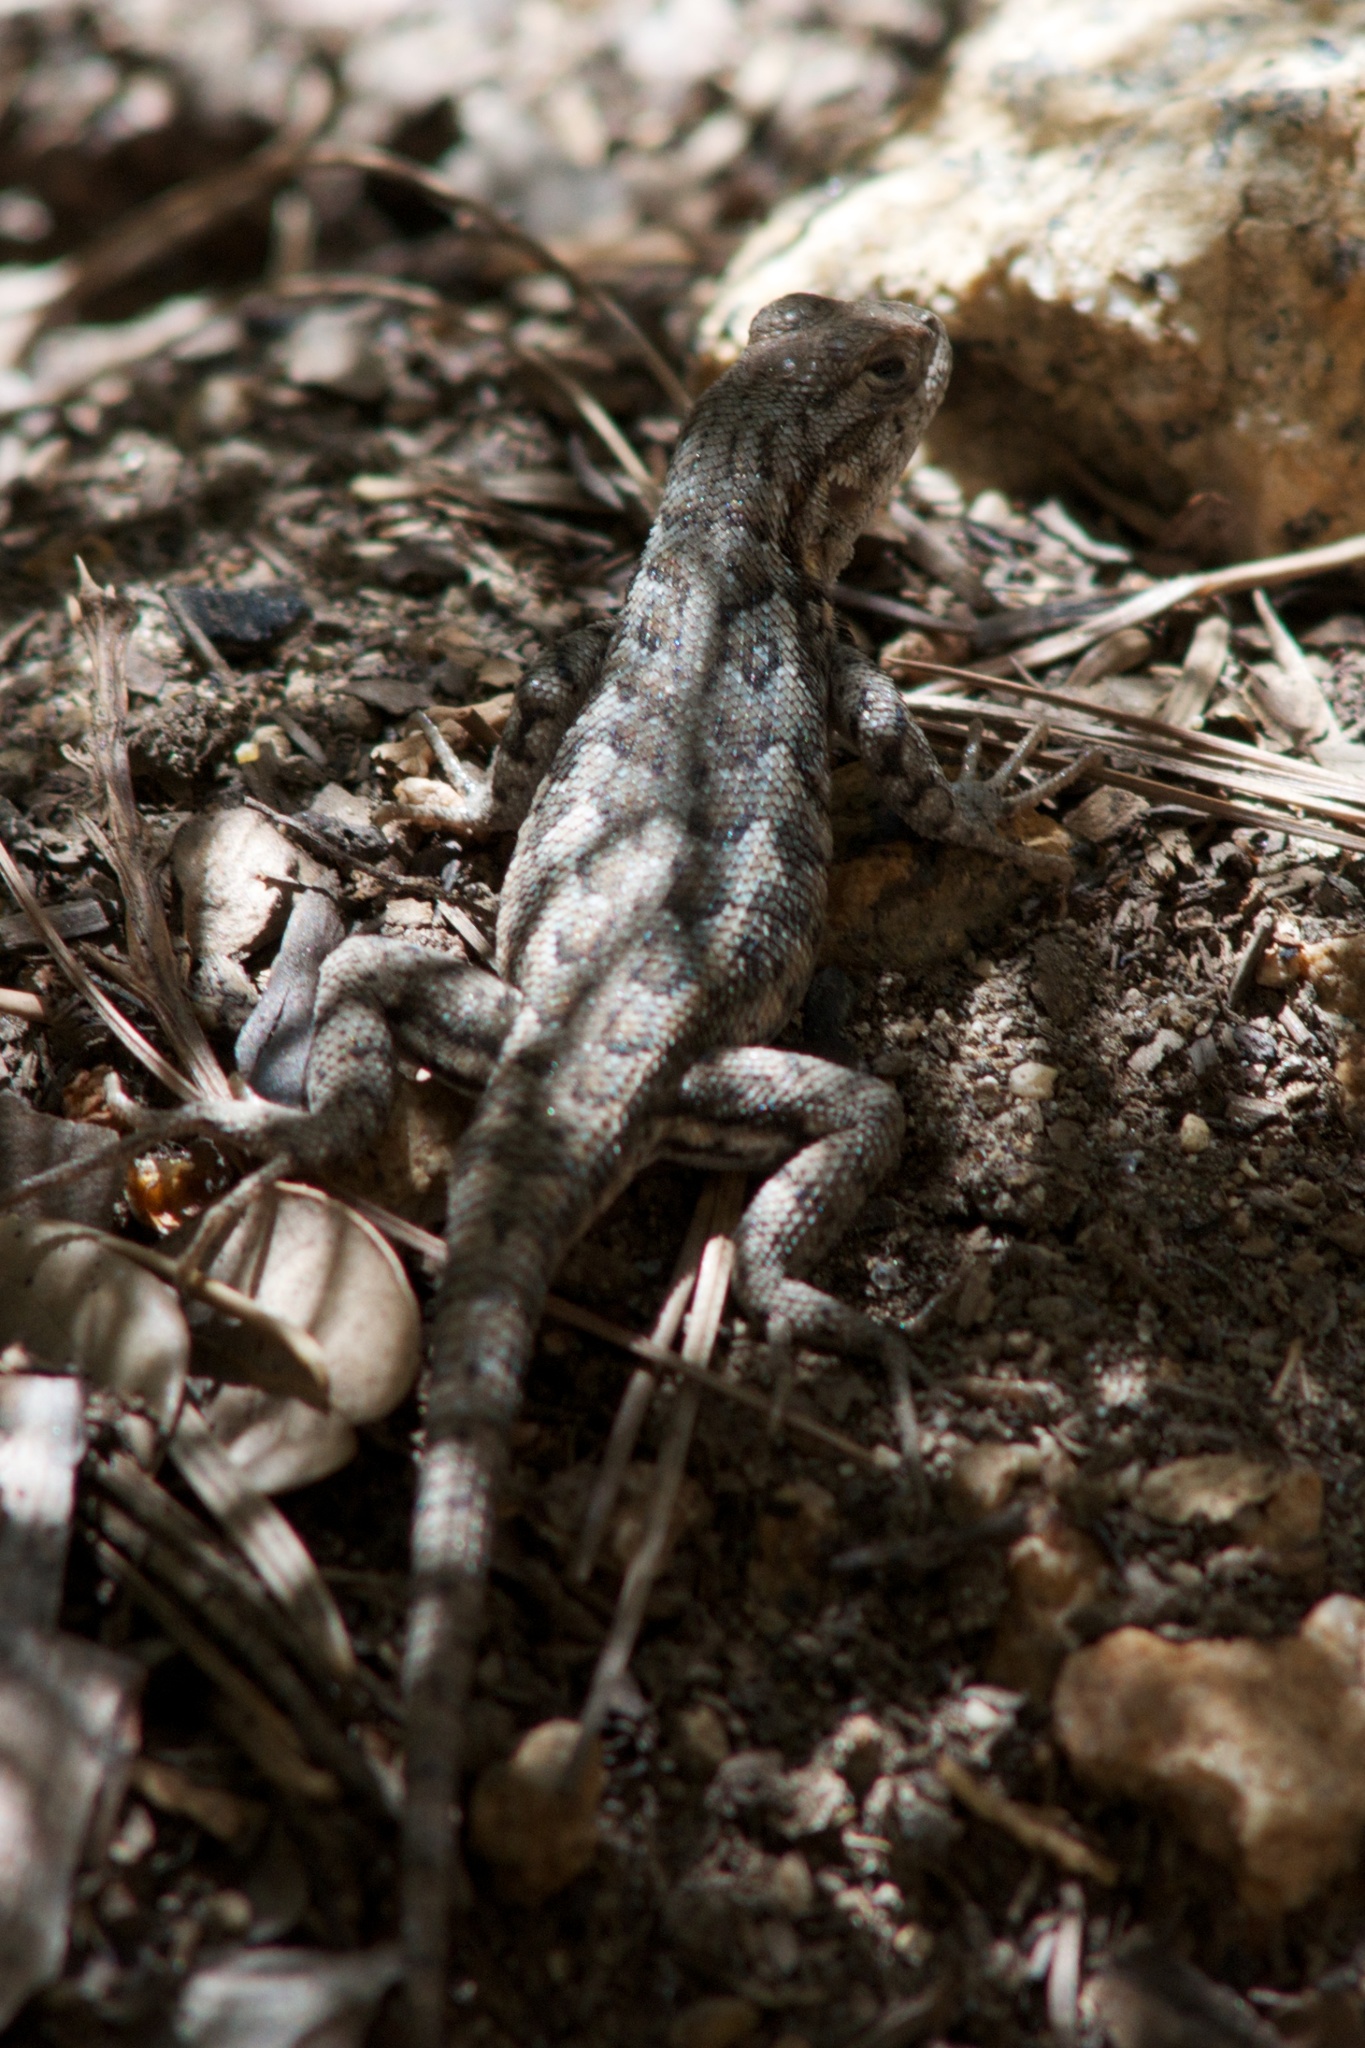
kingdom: Animalia
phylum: Chordata
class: Squamata
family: Phrynosomatidae
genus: Sceloporus
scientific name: Sceloporus graciosus
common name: Sagebrush lizard
